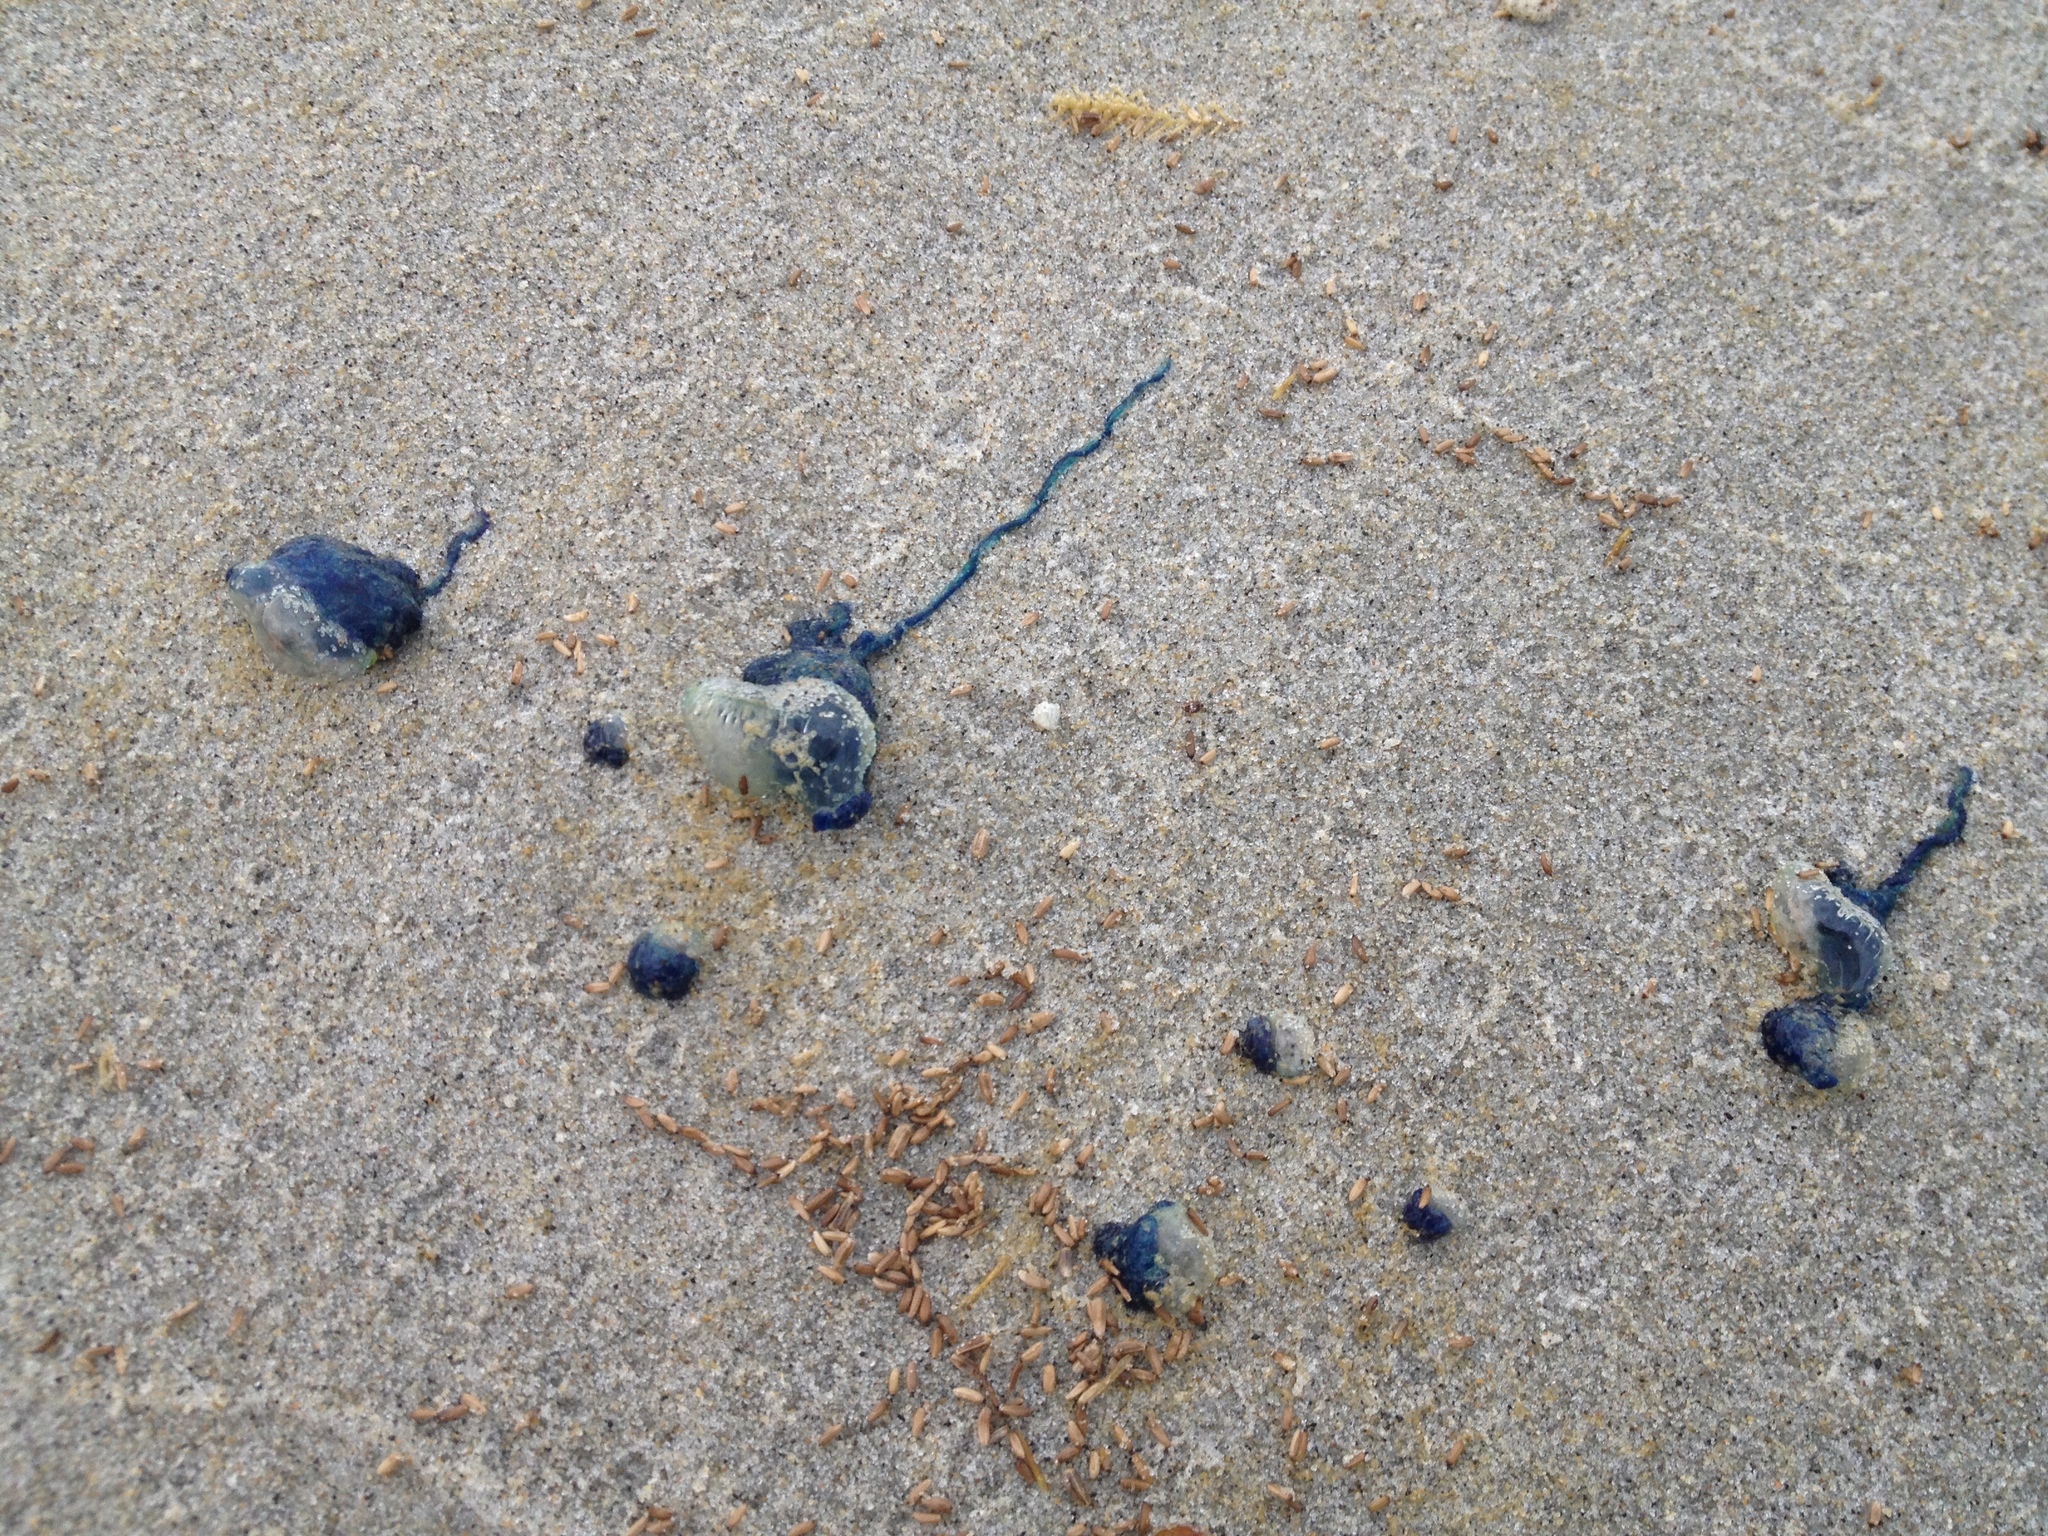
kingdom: Animalia
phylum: Cnidaria
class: Hydrozoa
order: Siphonophorae
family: Physaliidae
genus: Physalia
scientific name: Physalia physalis
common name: Portuguese man-of-war
